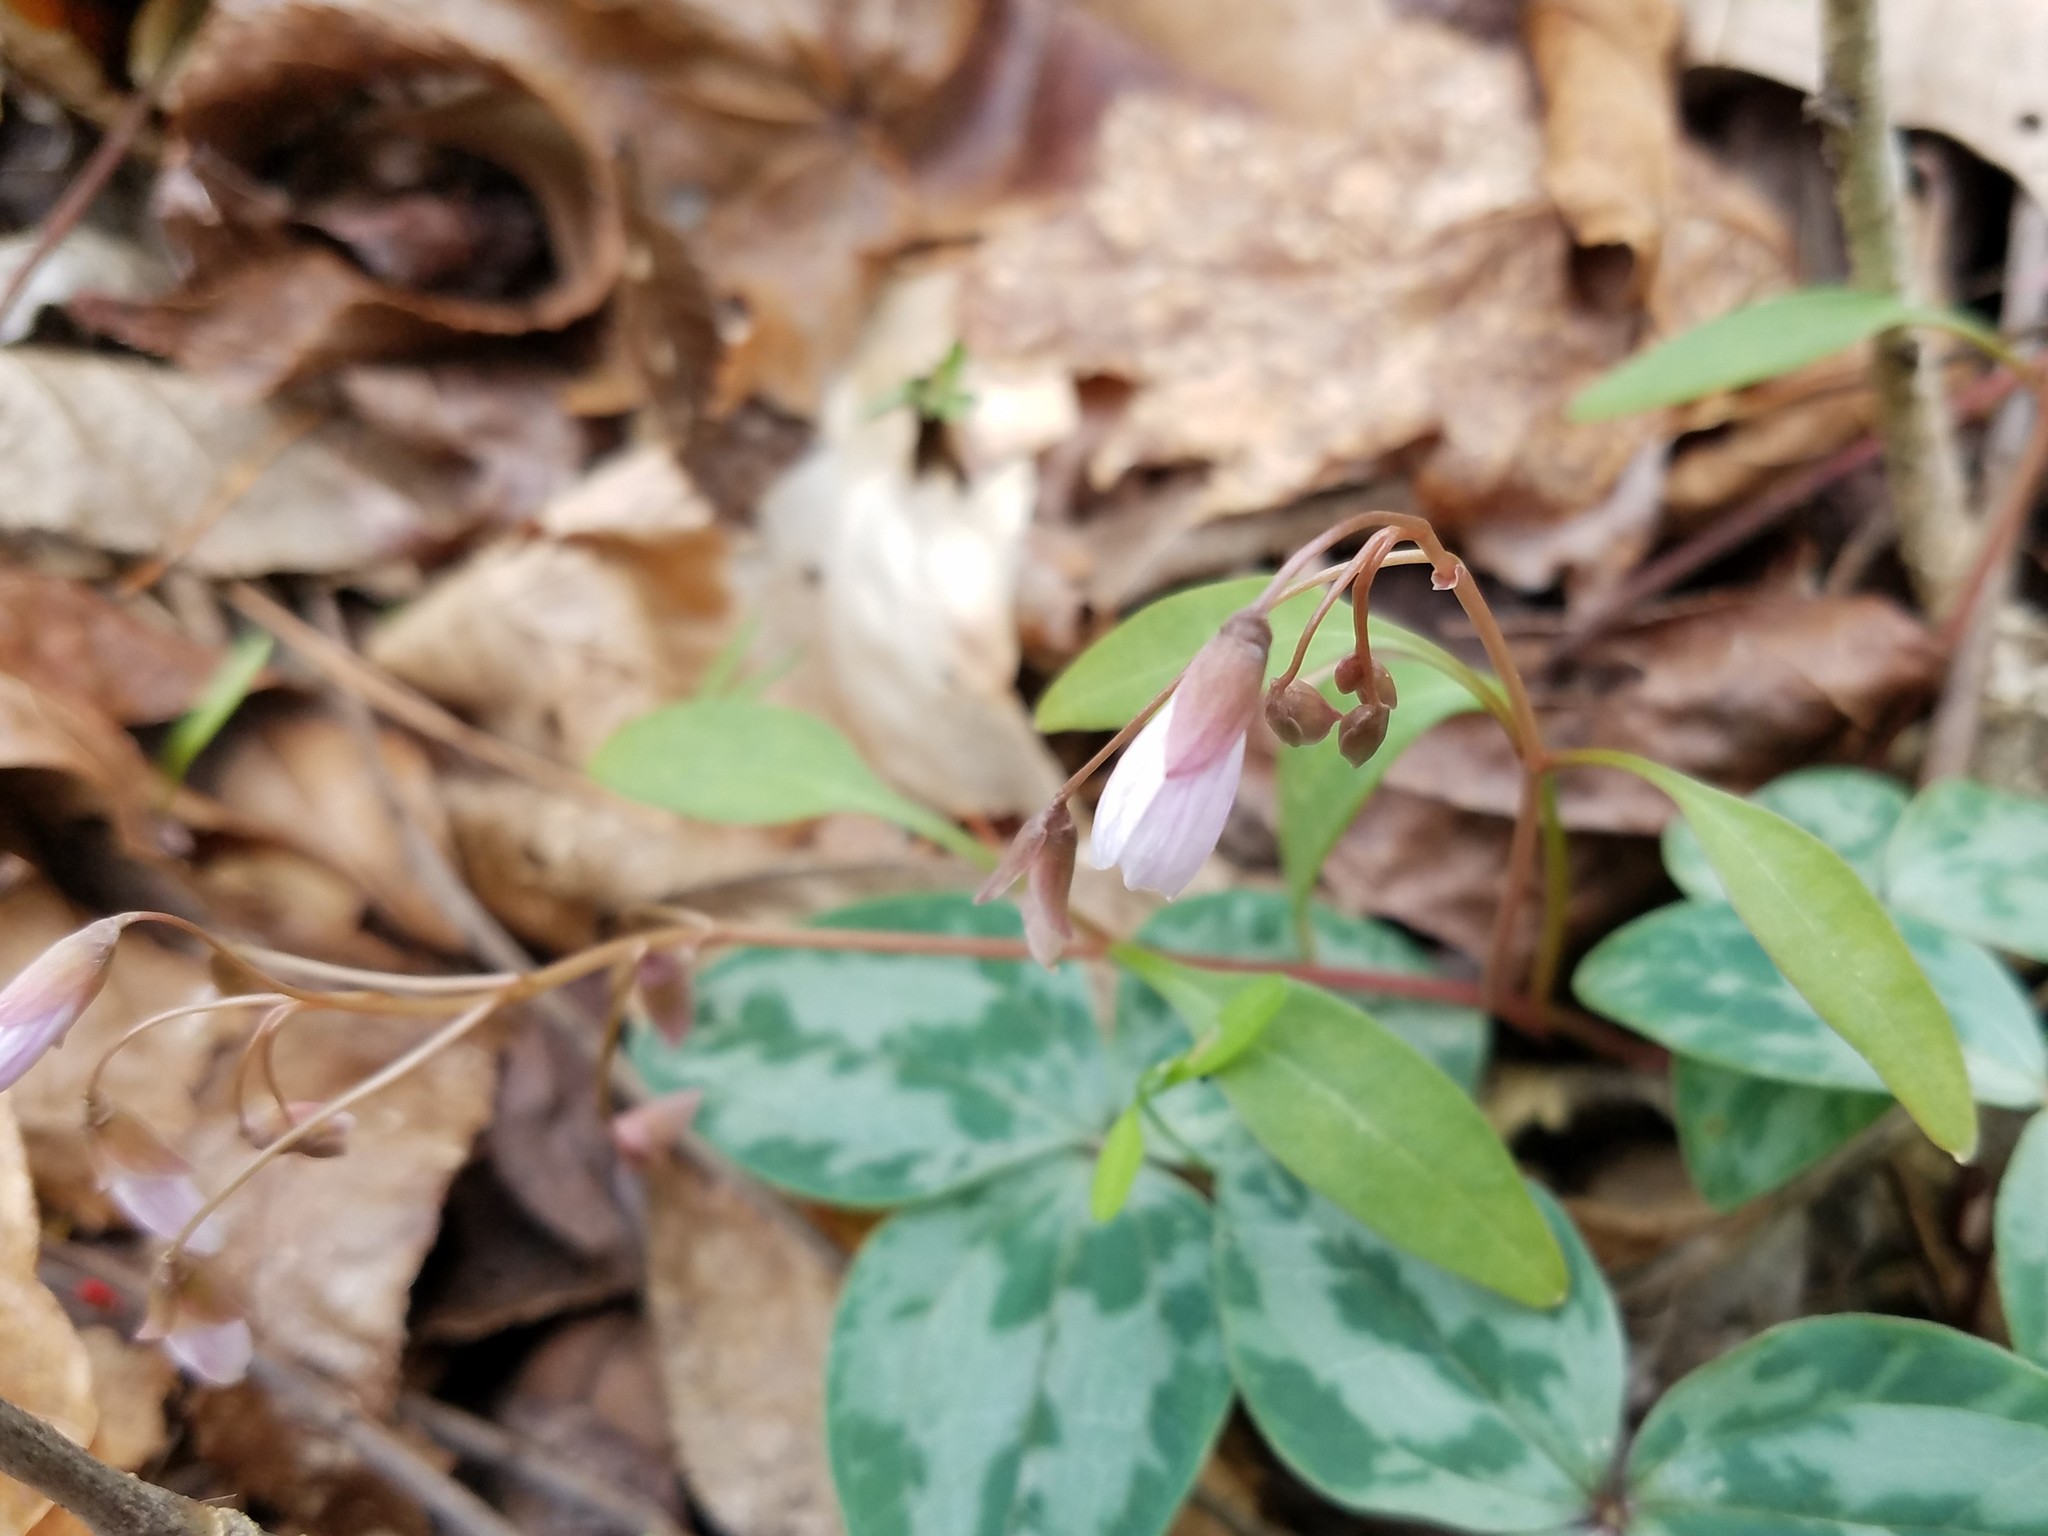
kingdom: Plantae
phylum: Tracheophyta
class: Magnoliopsida
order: Caryophyllales
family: Montiaceae
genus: Claytonia
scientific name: Claytonia caroliniana
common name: Carolina spring beauty
